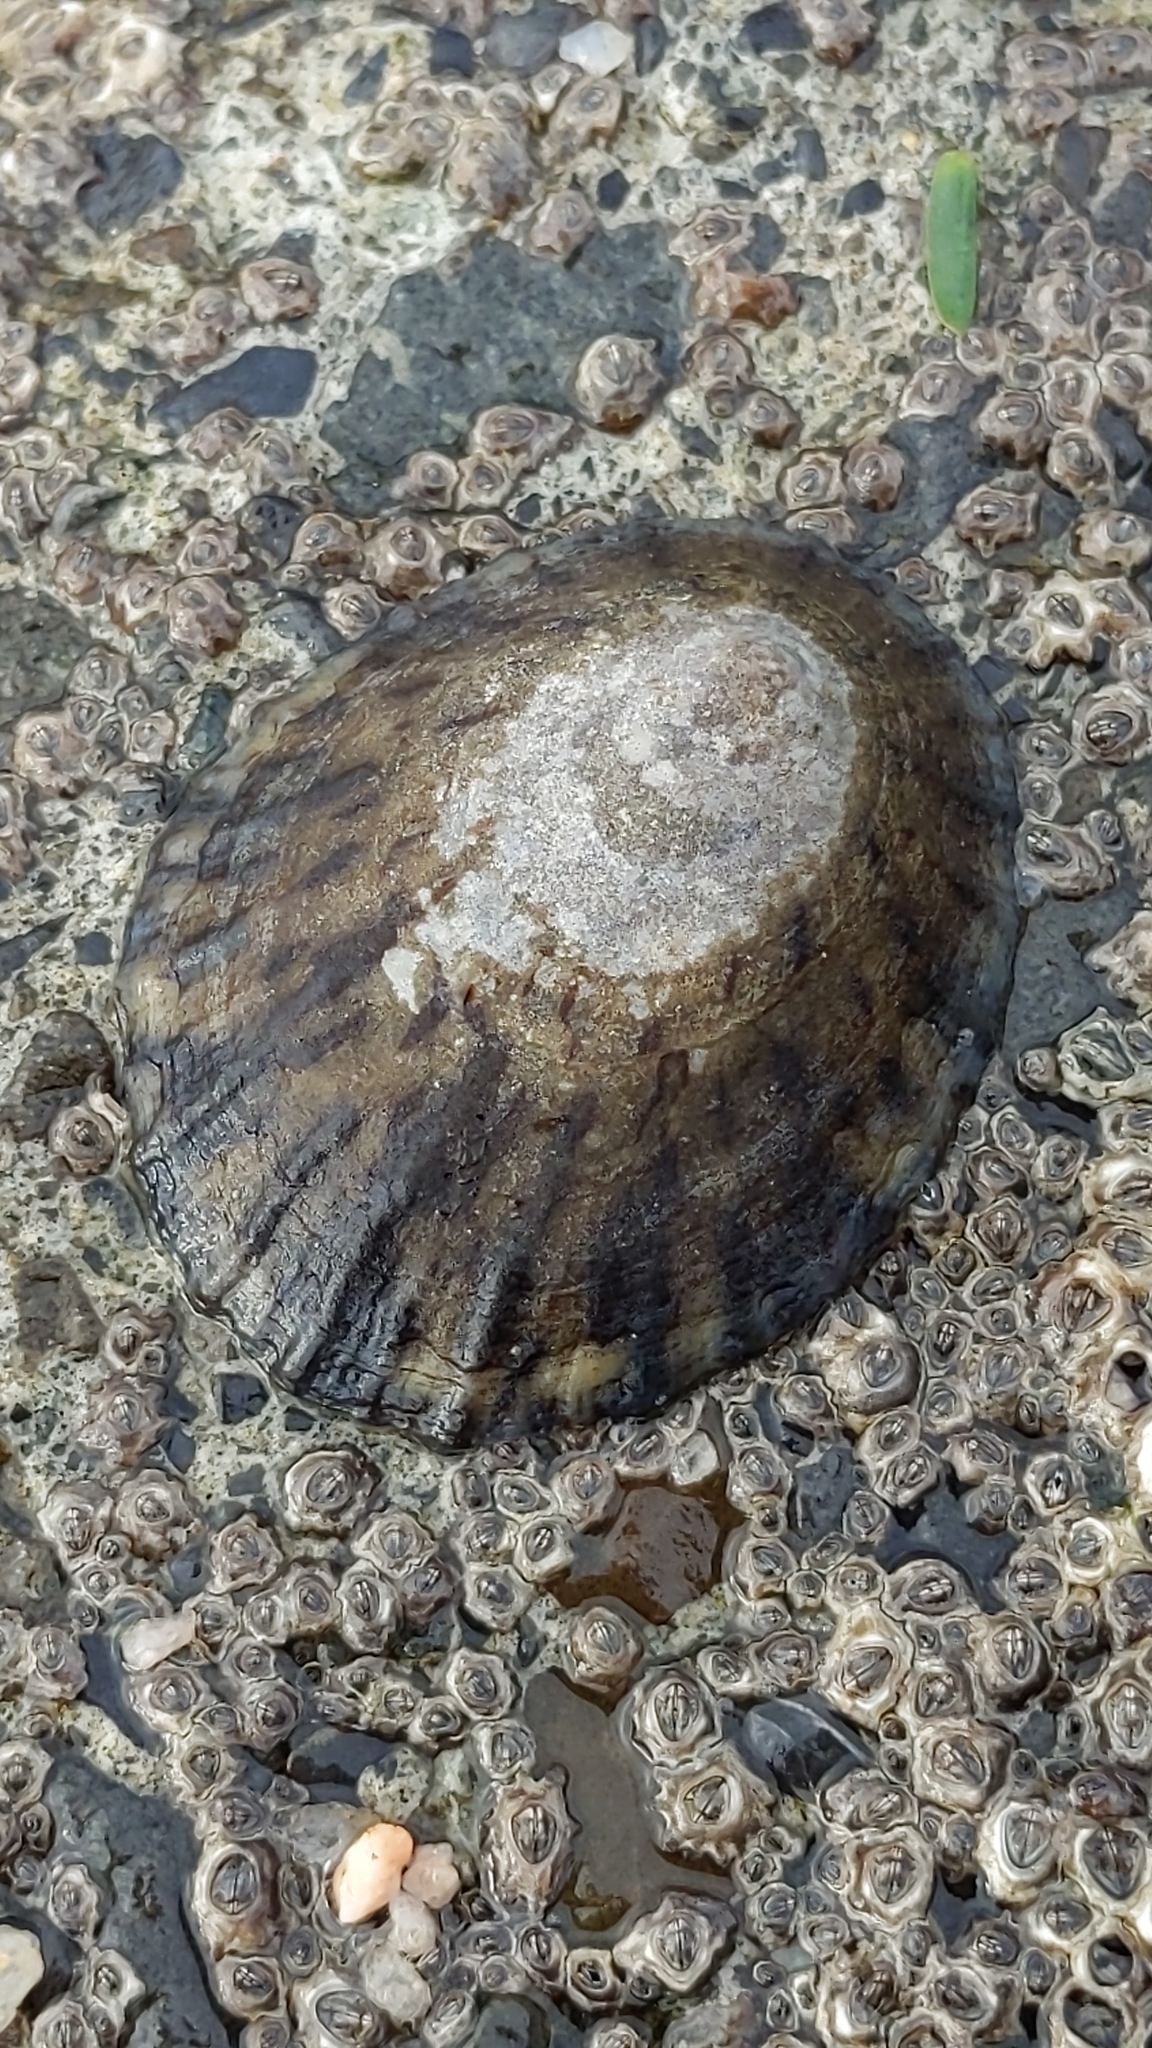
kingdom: Animalia
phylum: Mollusca
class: Gastropoda
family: Nacellidae
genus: Cellana
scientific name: Cellana radians
